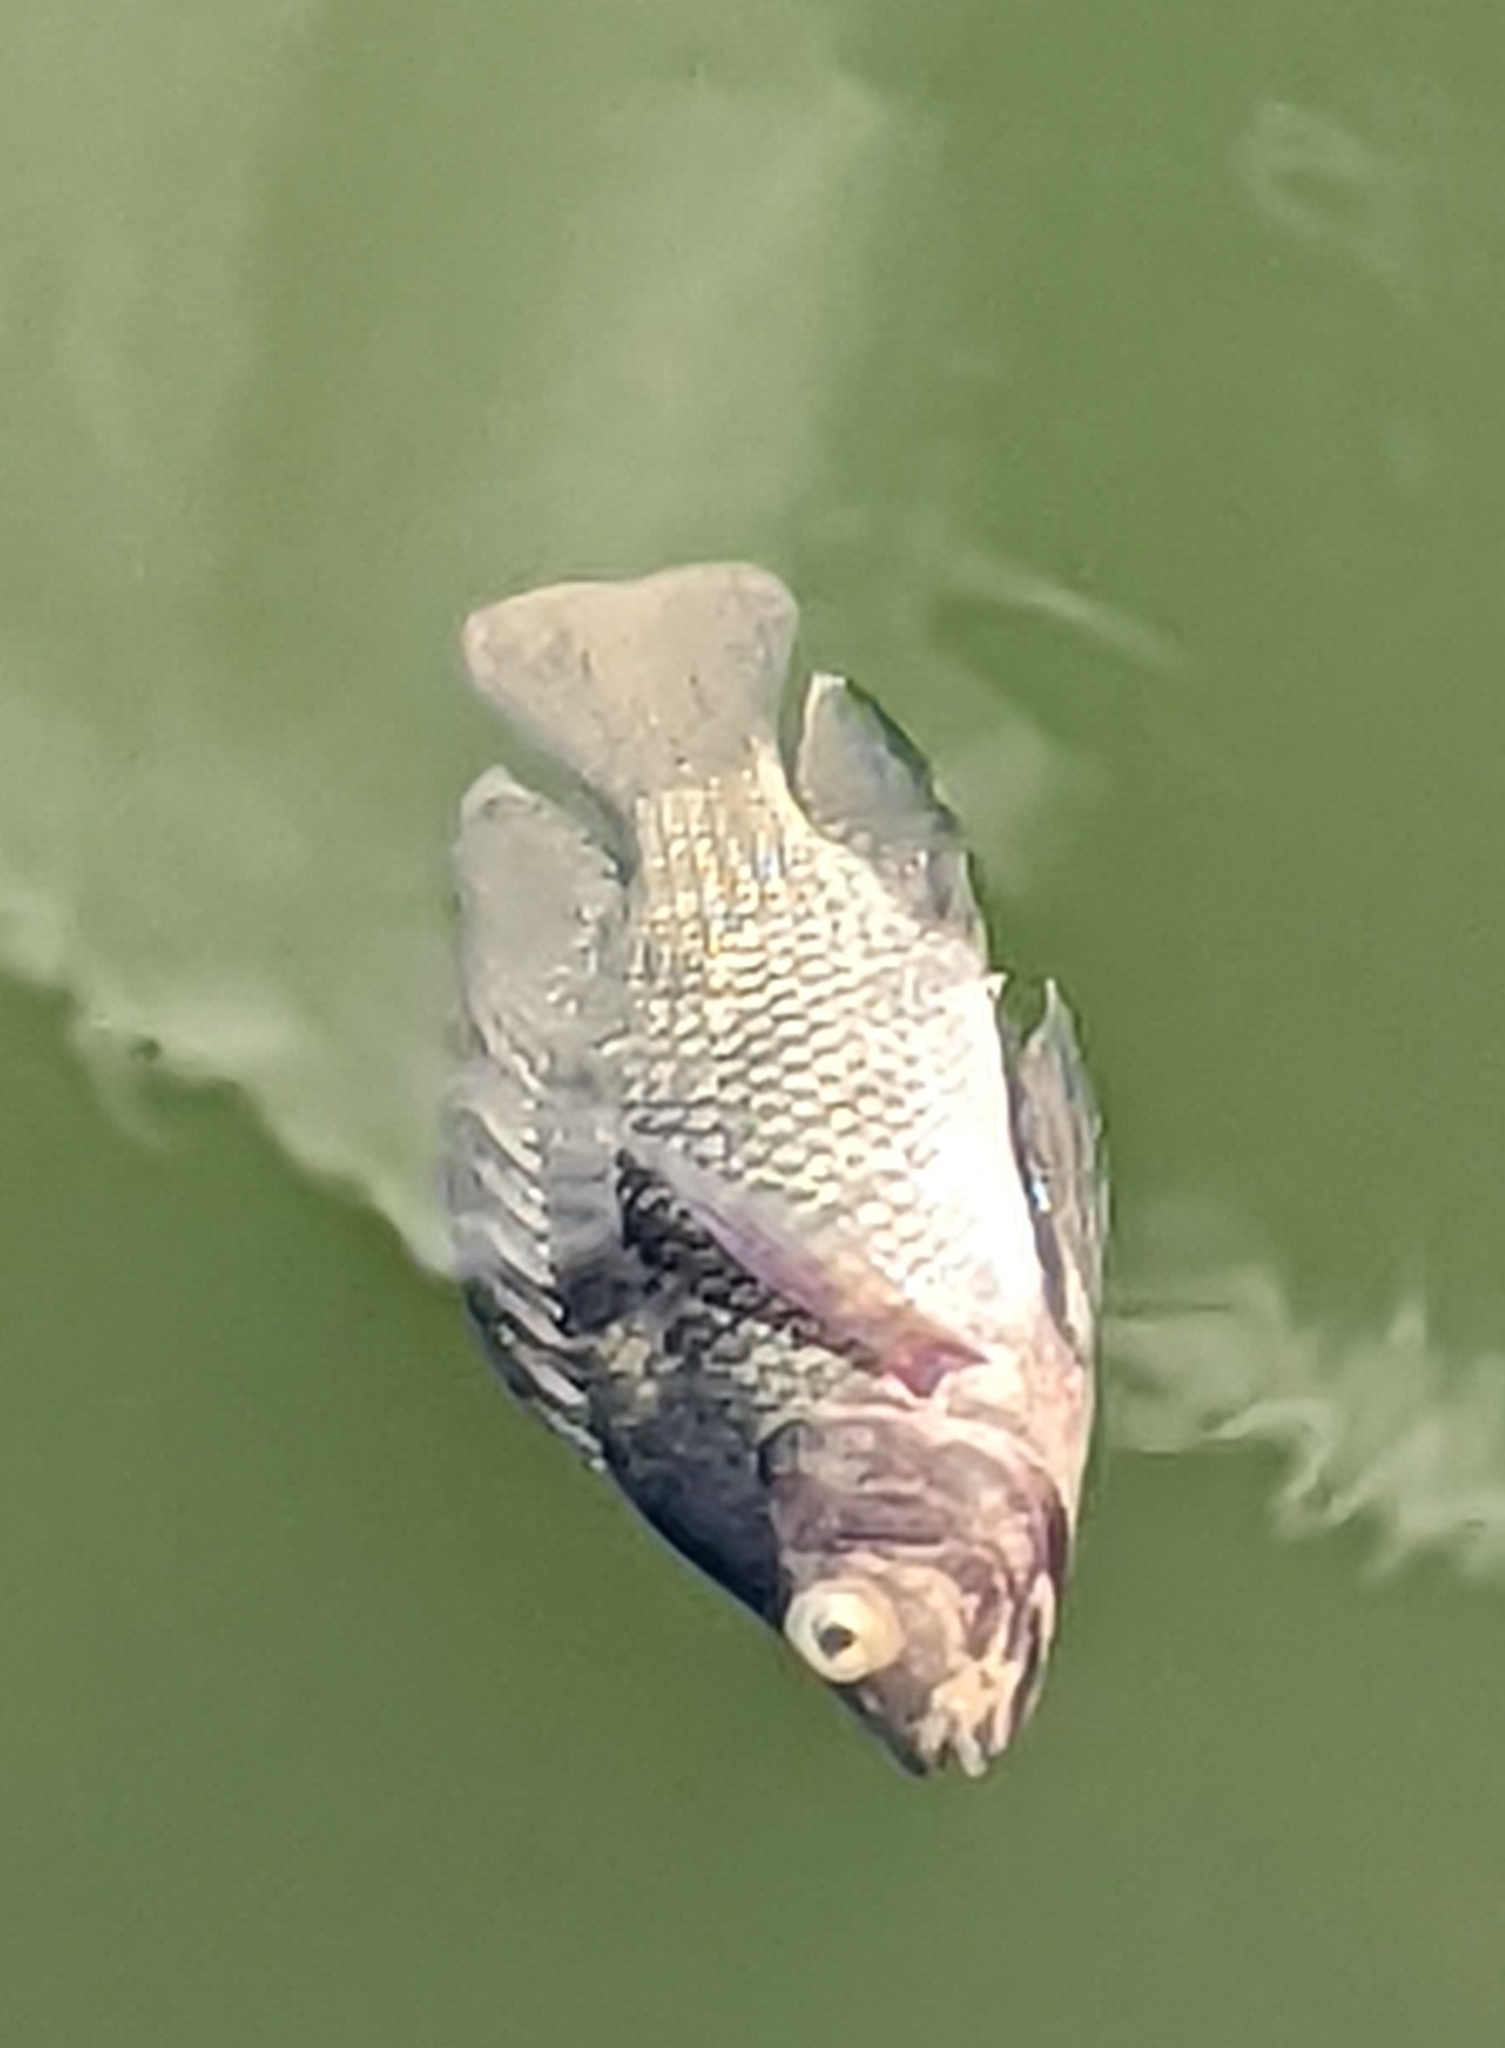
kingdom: Animalia
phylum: Chordata
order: Perciformes
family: Cichlidae
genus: Oreochromis
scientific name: Oreochromis niloticus
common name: Nile tilapia
